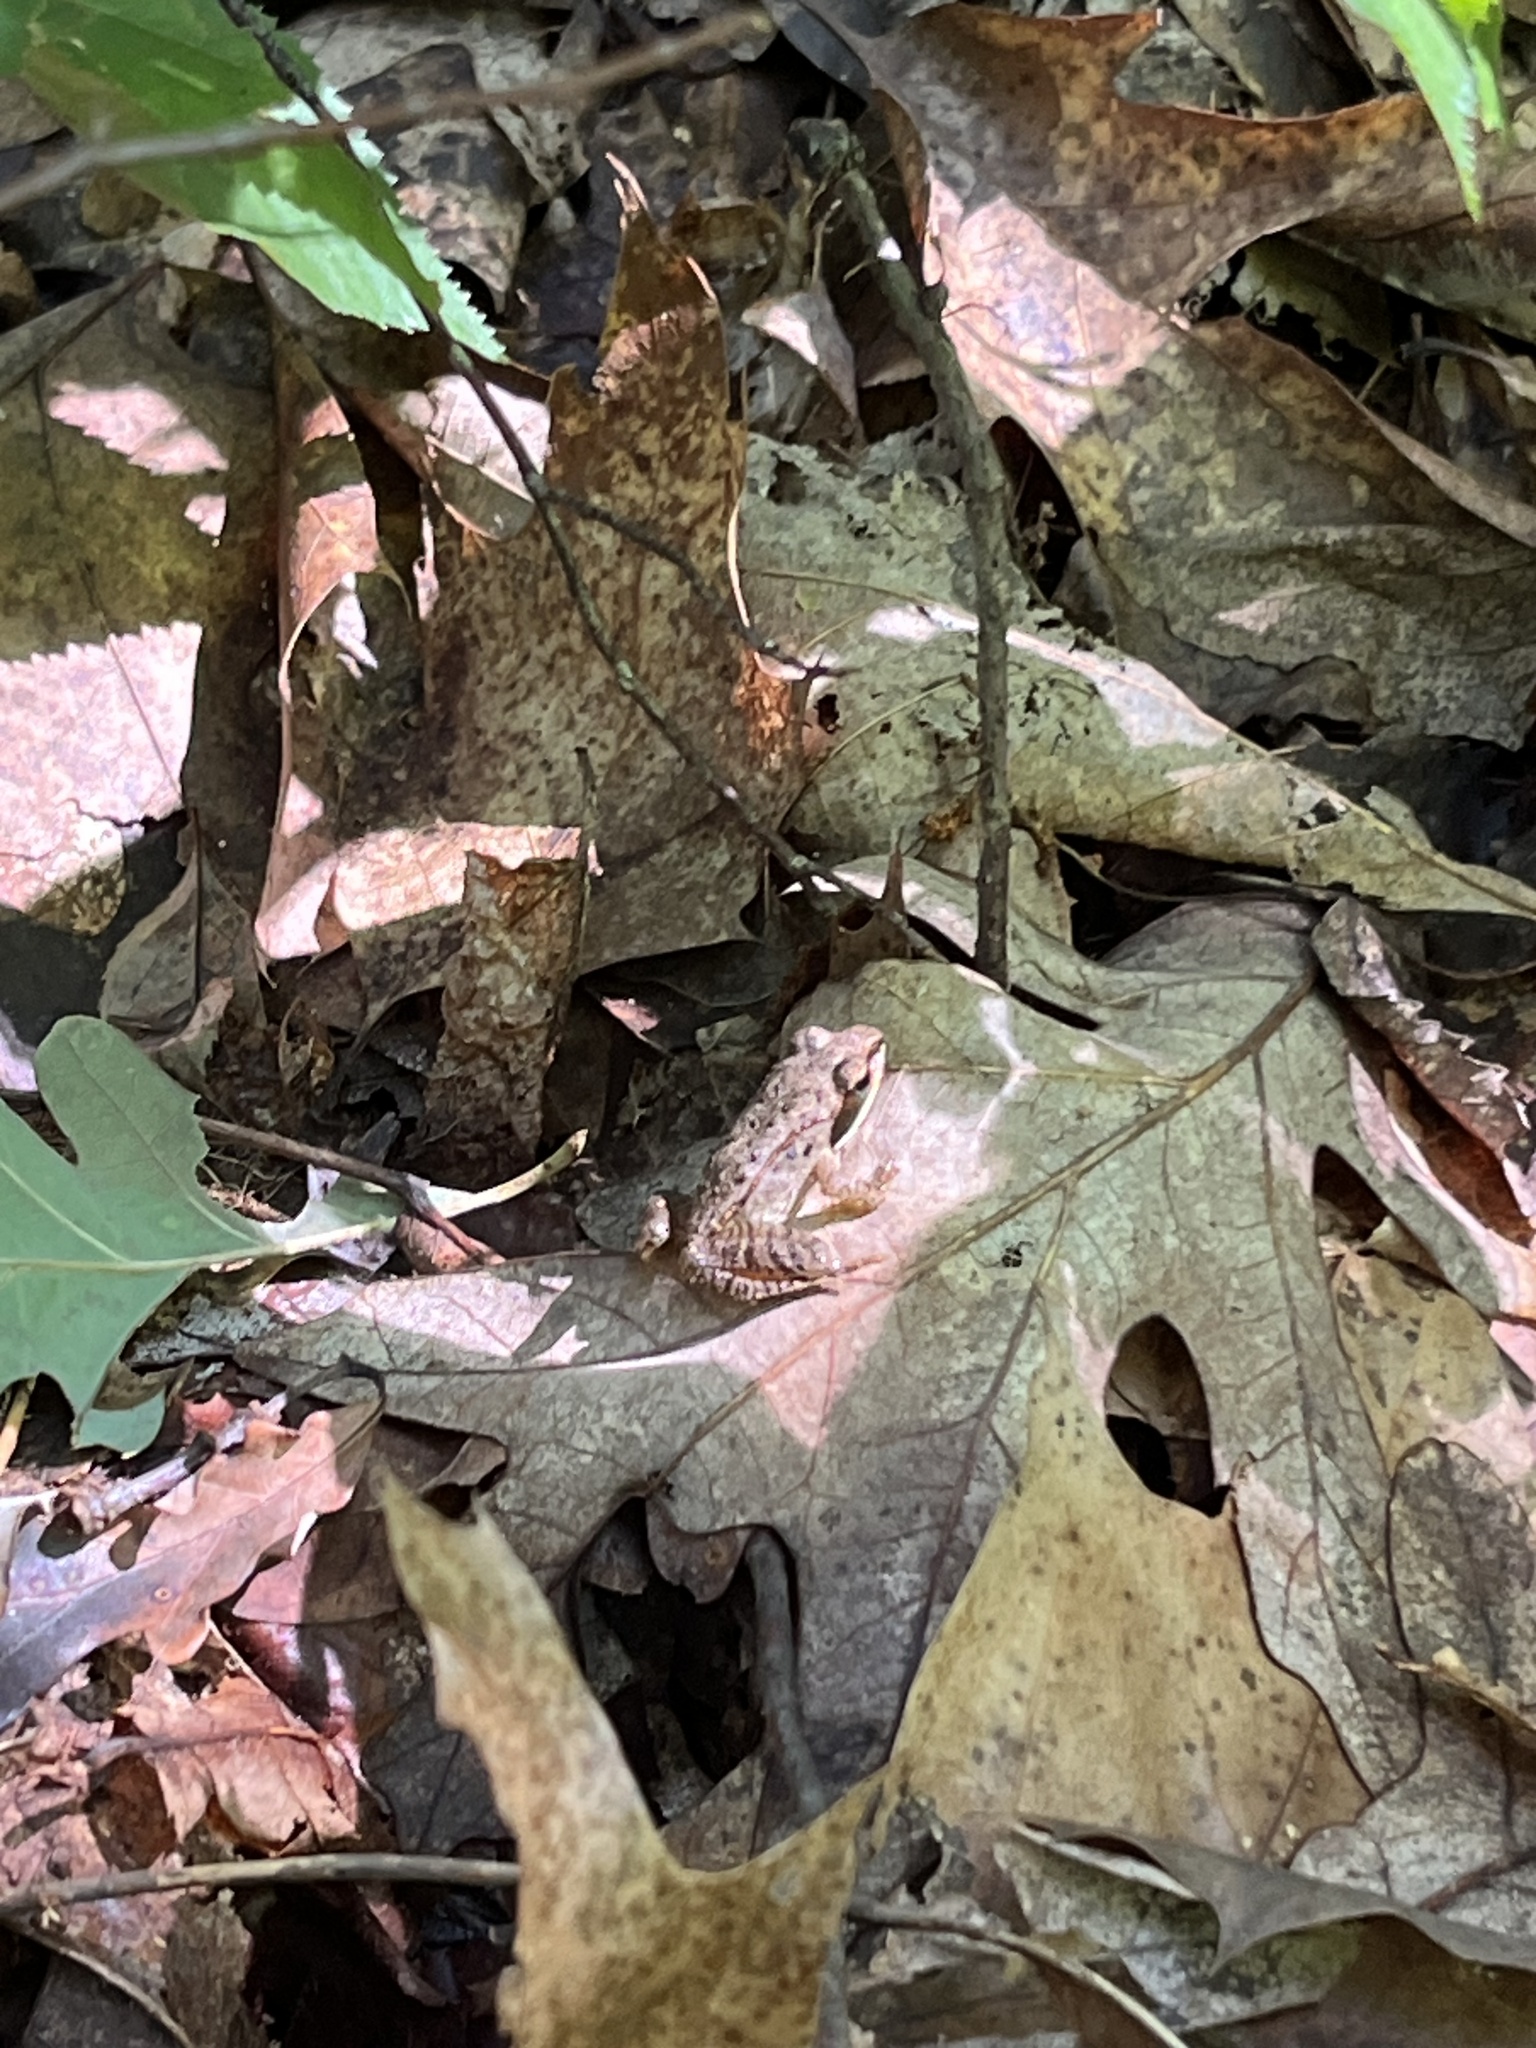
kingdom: Animalia
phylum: Chordata
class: Amphibia
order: Anura
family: Ranidae
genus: Lithobates
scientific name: Lithobates sylvaticus
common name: Wood frog
